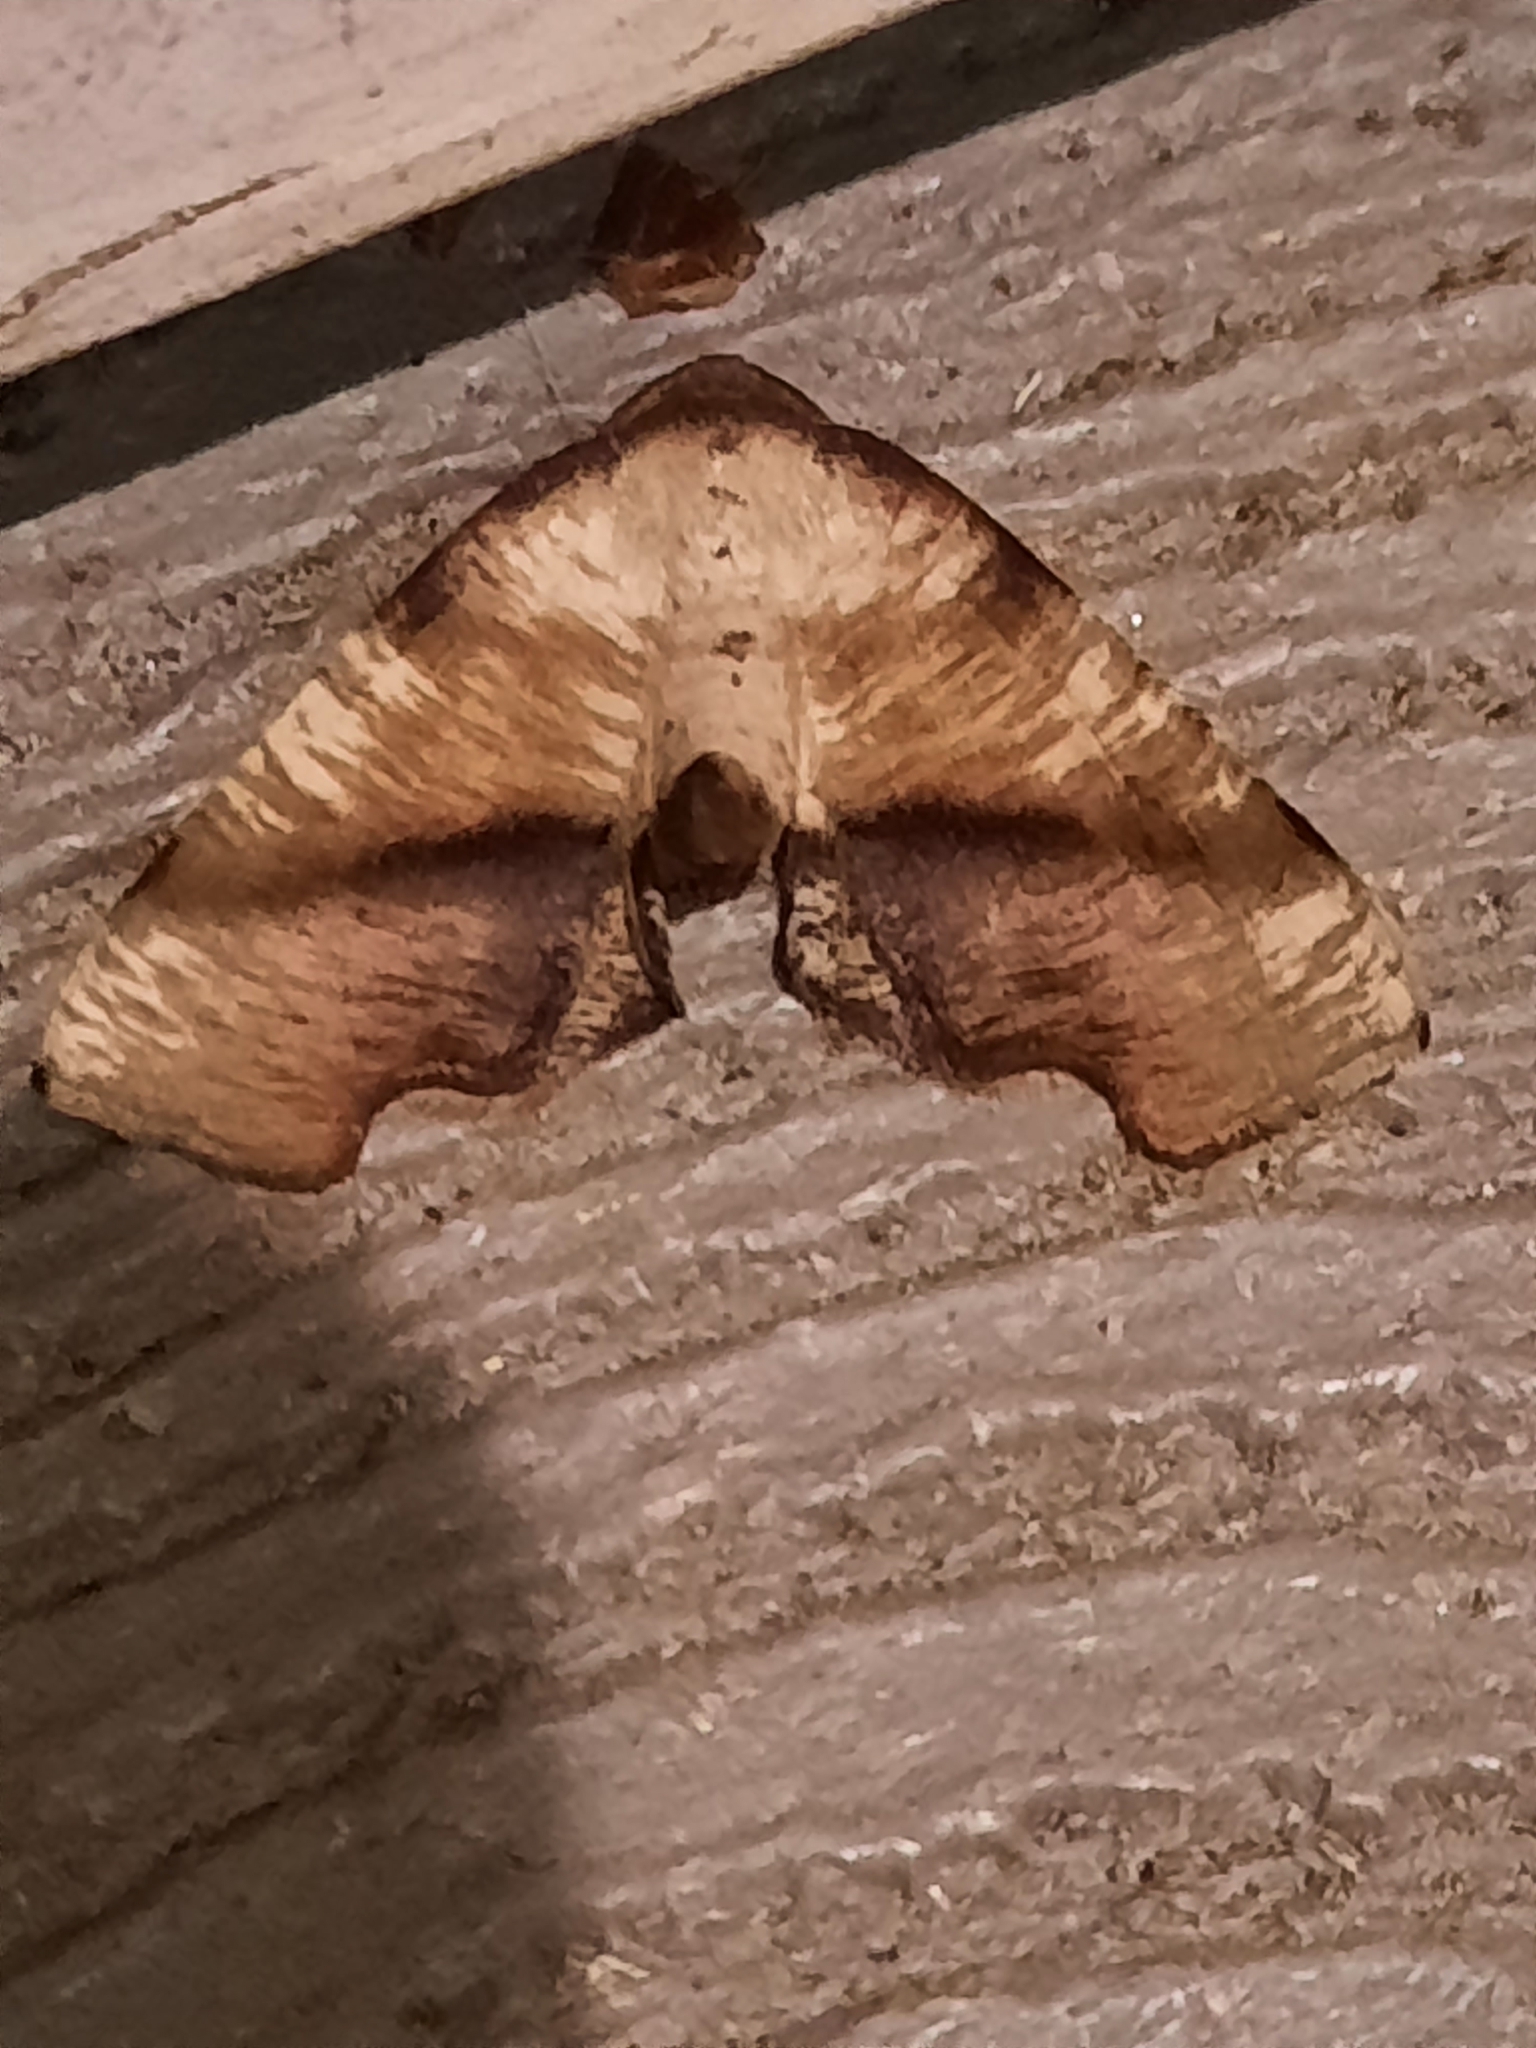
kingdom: Animalia
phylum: Arthropoda
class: Insecta
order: Lepidoptera
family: Geometridae
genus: Plagodis
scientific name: Plagodis fervidaria
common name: Fervid plagodis
